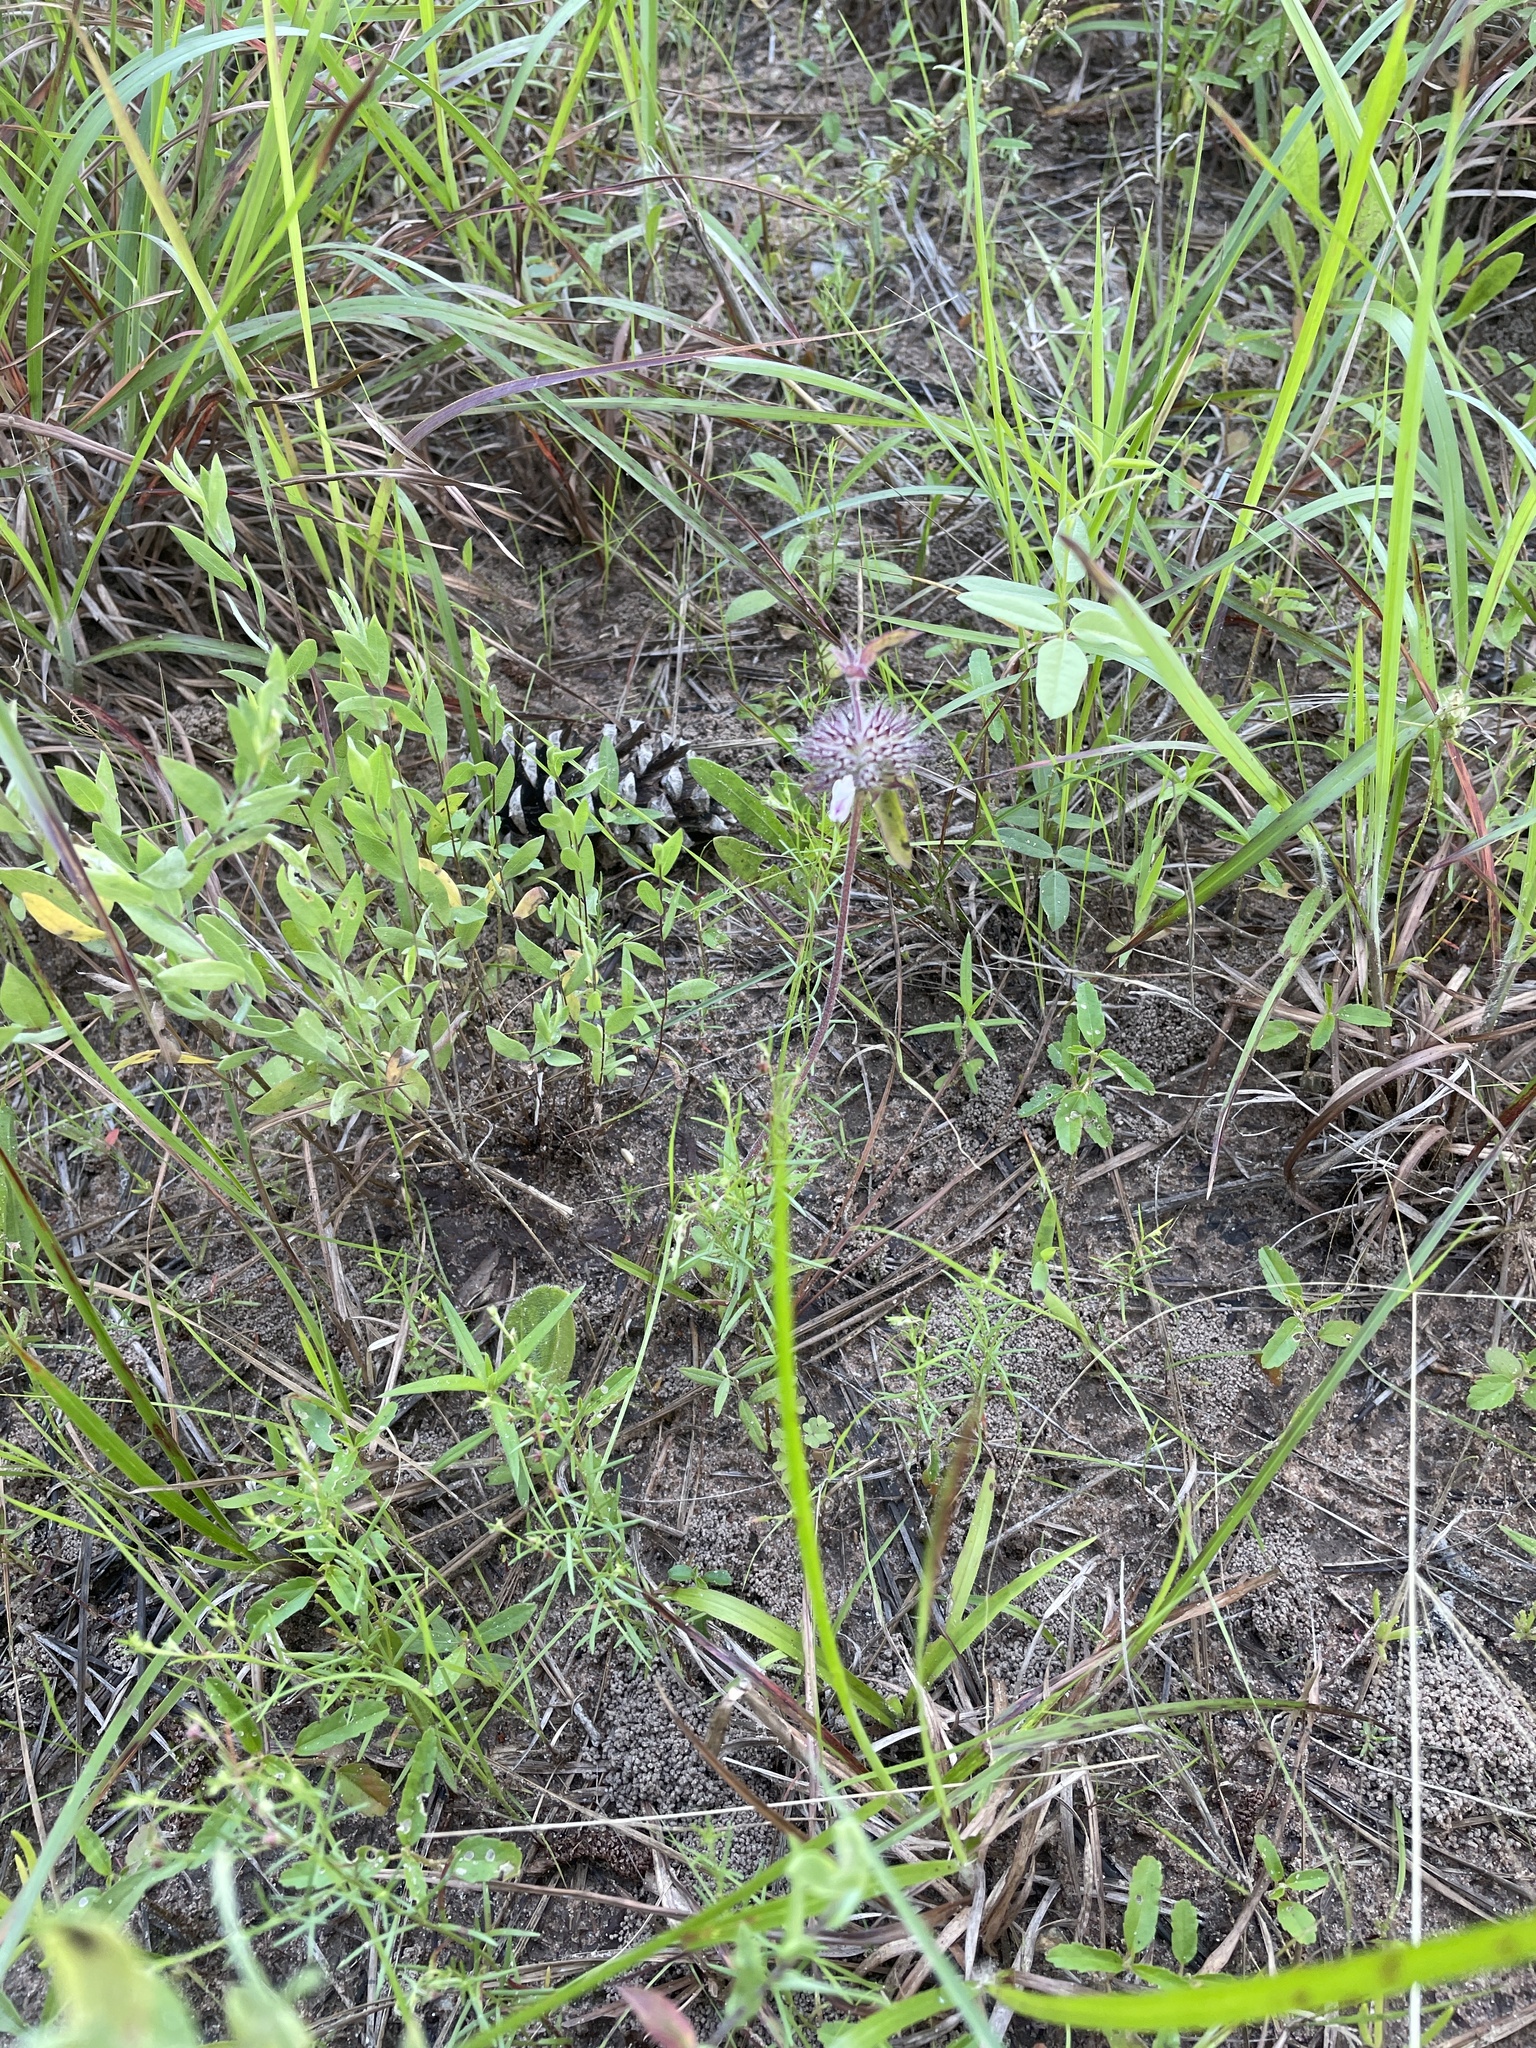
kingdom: Plantae
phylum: Tracheophyta
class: Magnoliopsida
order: Lamiales
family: Lamiaceae
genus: Monarda
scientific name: Monarda clinopodioides
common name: Basil beebalm
